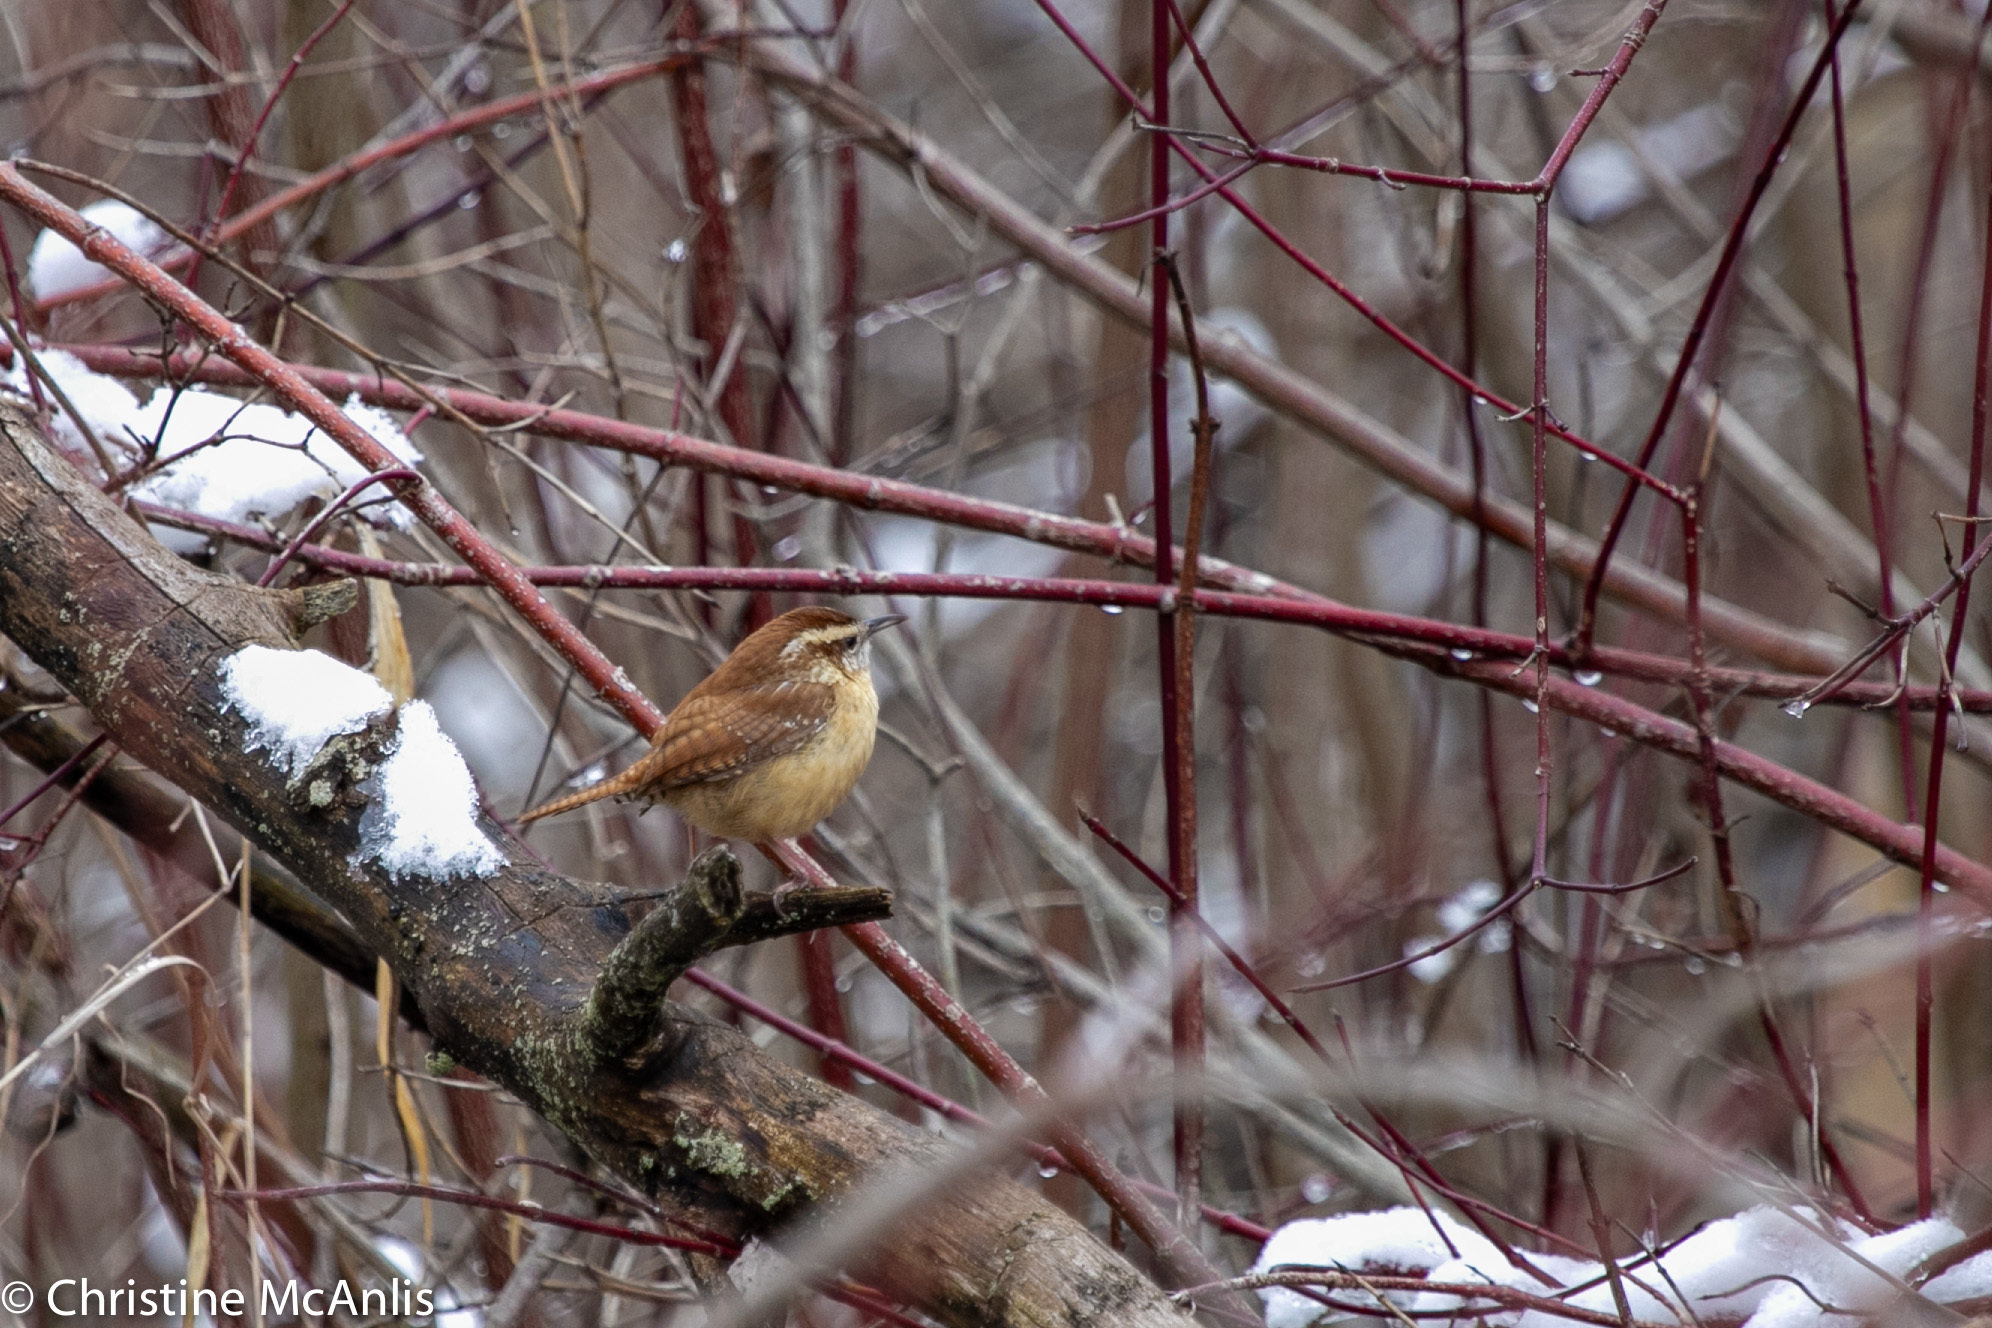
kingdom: Animalia
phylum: Chordata
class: Aves
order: Passeriformes
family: Troglodytidae
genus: Thryothorus
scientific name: Thryothorus ludovicianus
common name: Carolina wren
